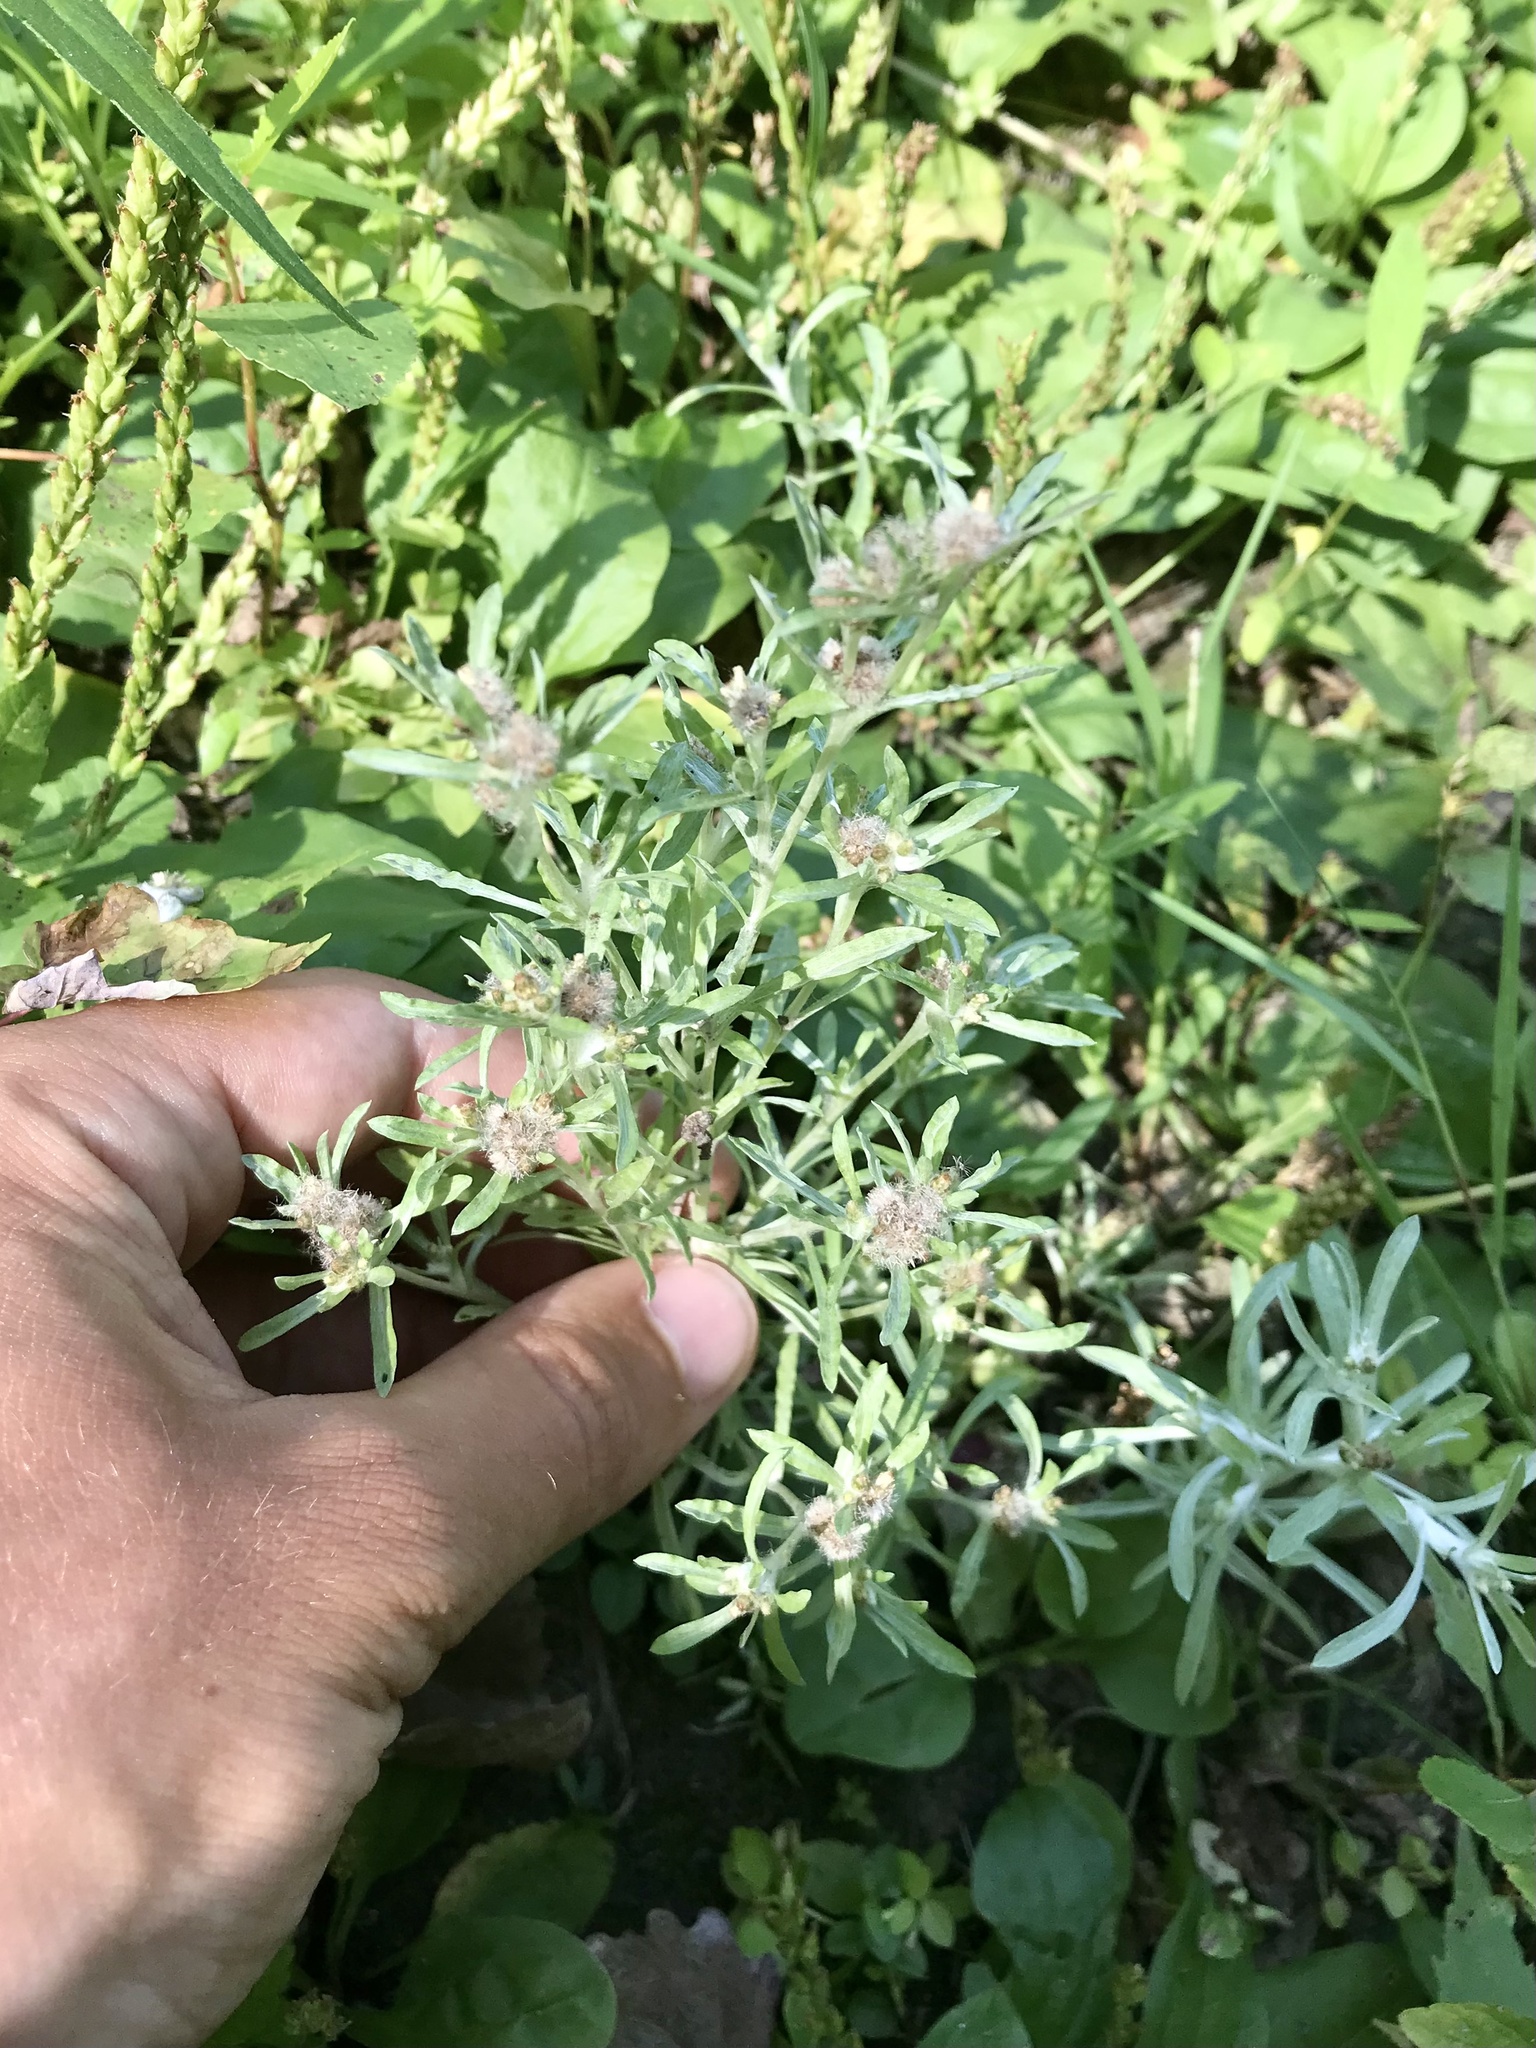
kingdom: Plantae
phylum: Tracheophyta
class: Magnoliopsida
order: Asterales
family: Asteraceae
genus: Gnaphalium
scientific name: Gnaphalium uliginosum
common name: Marsh cudweed
